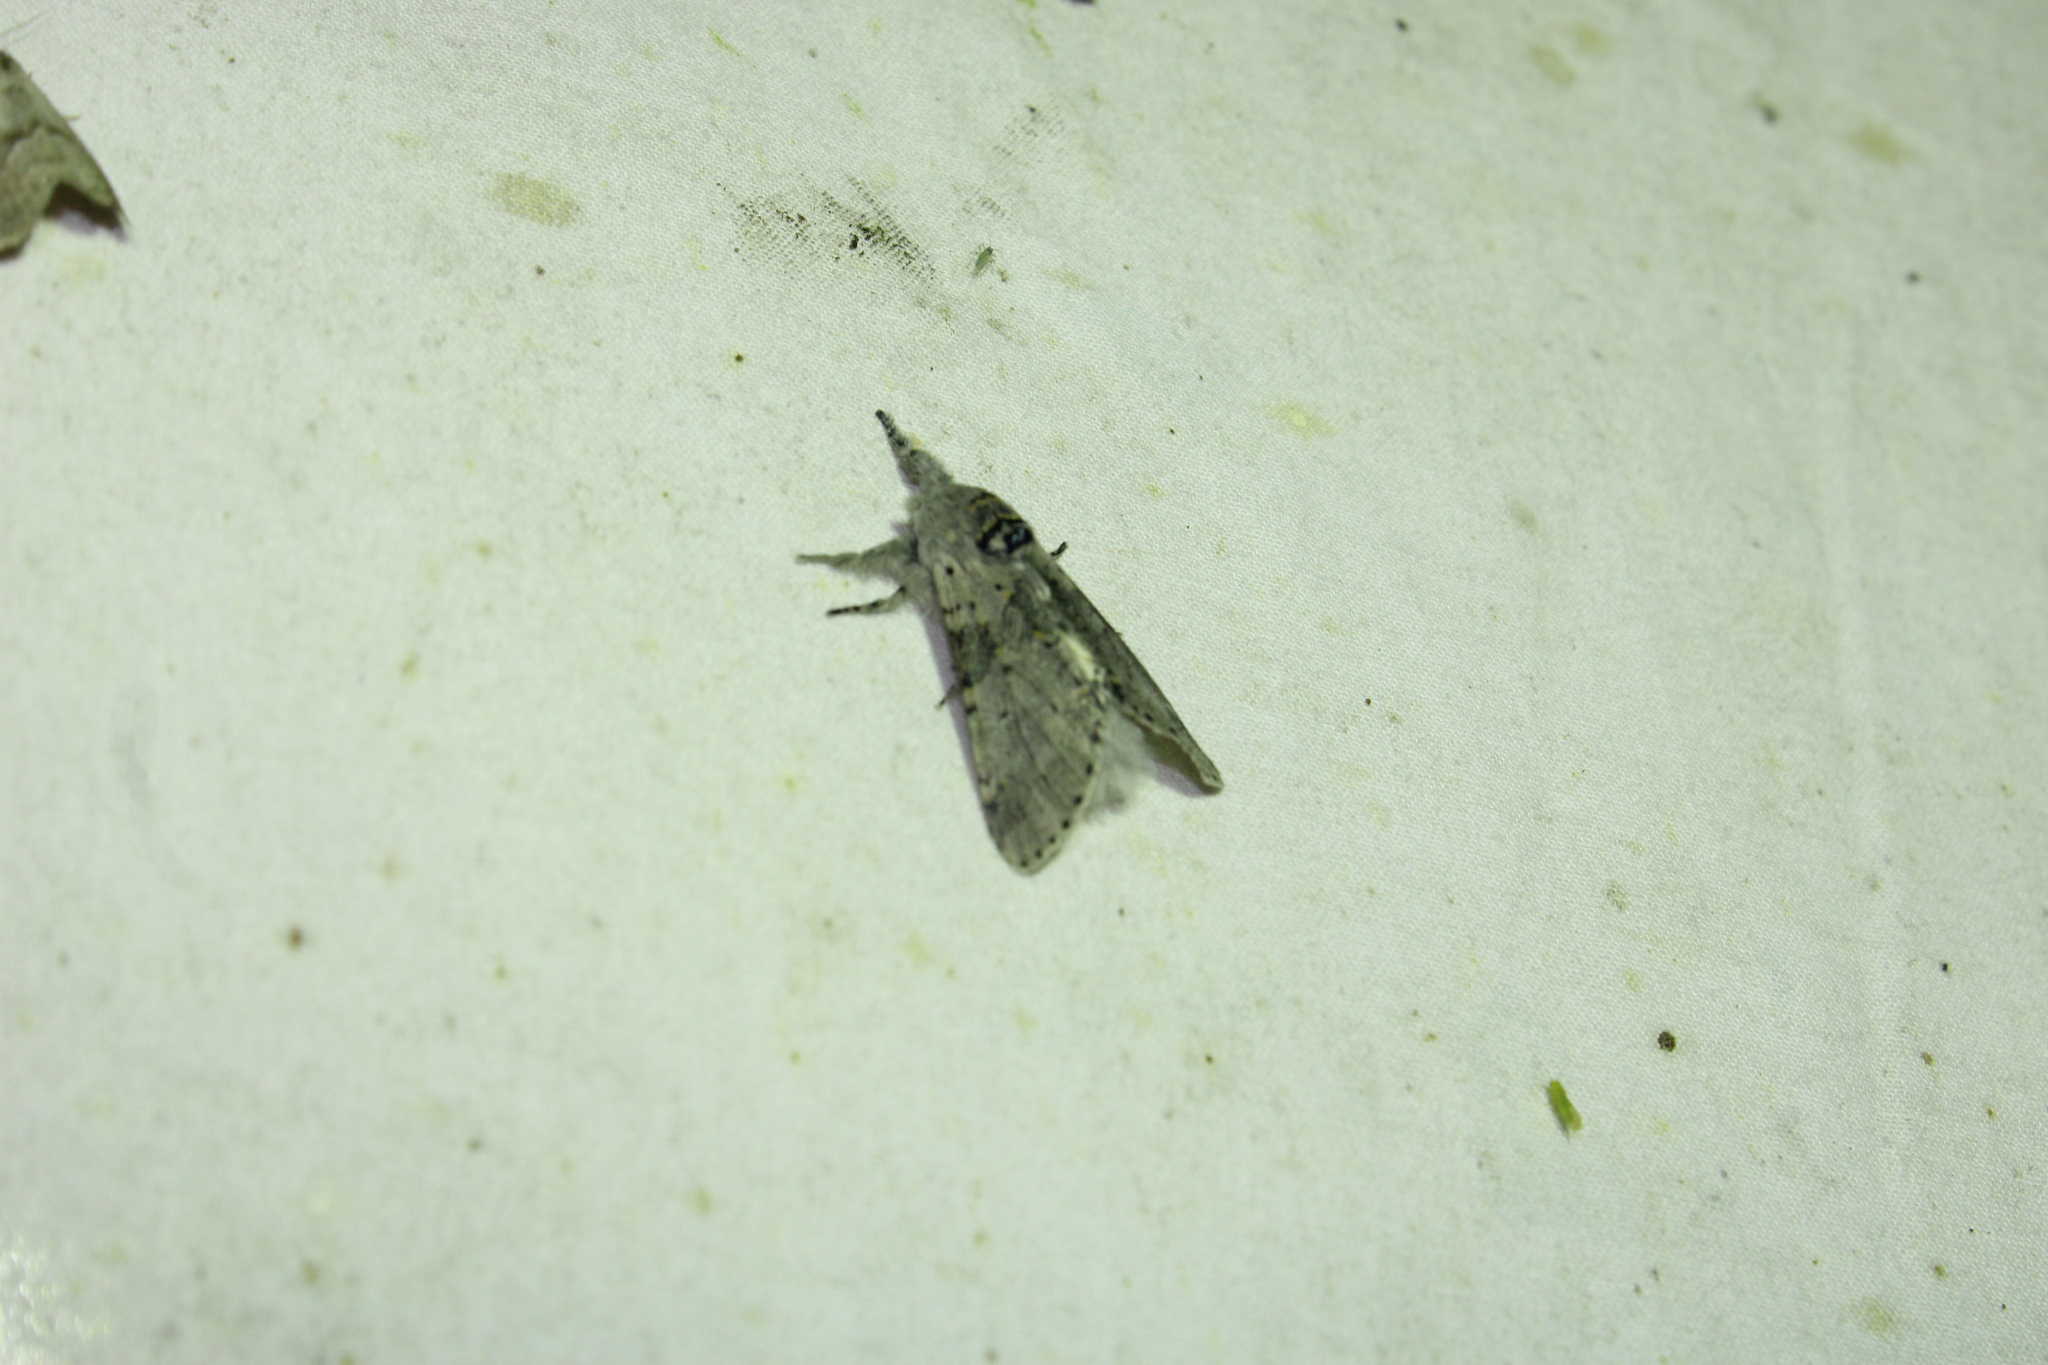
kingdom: Animalia
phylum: Arthropoda
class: Insecta
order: Lepidoptera
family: Notodontidae
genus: Furcula
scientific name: Furcula cinerea
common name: Gray furcula
